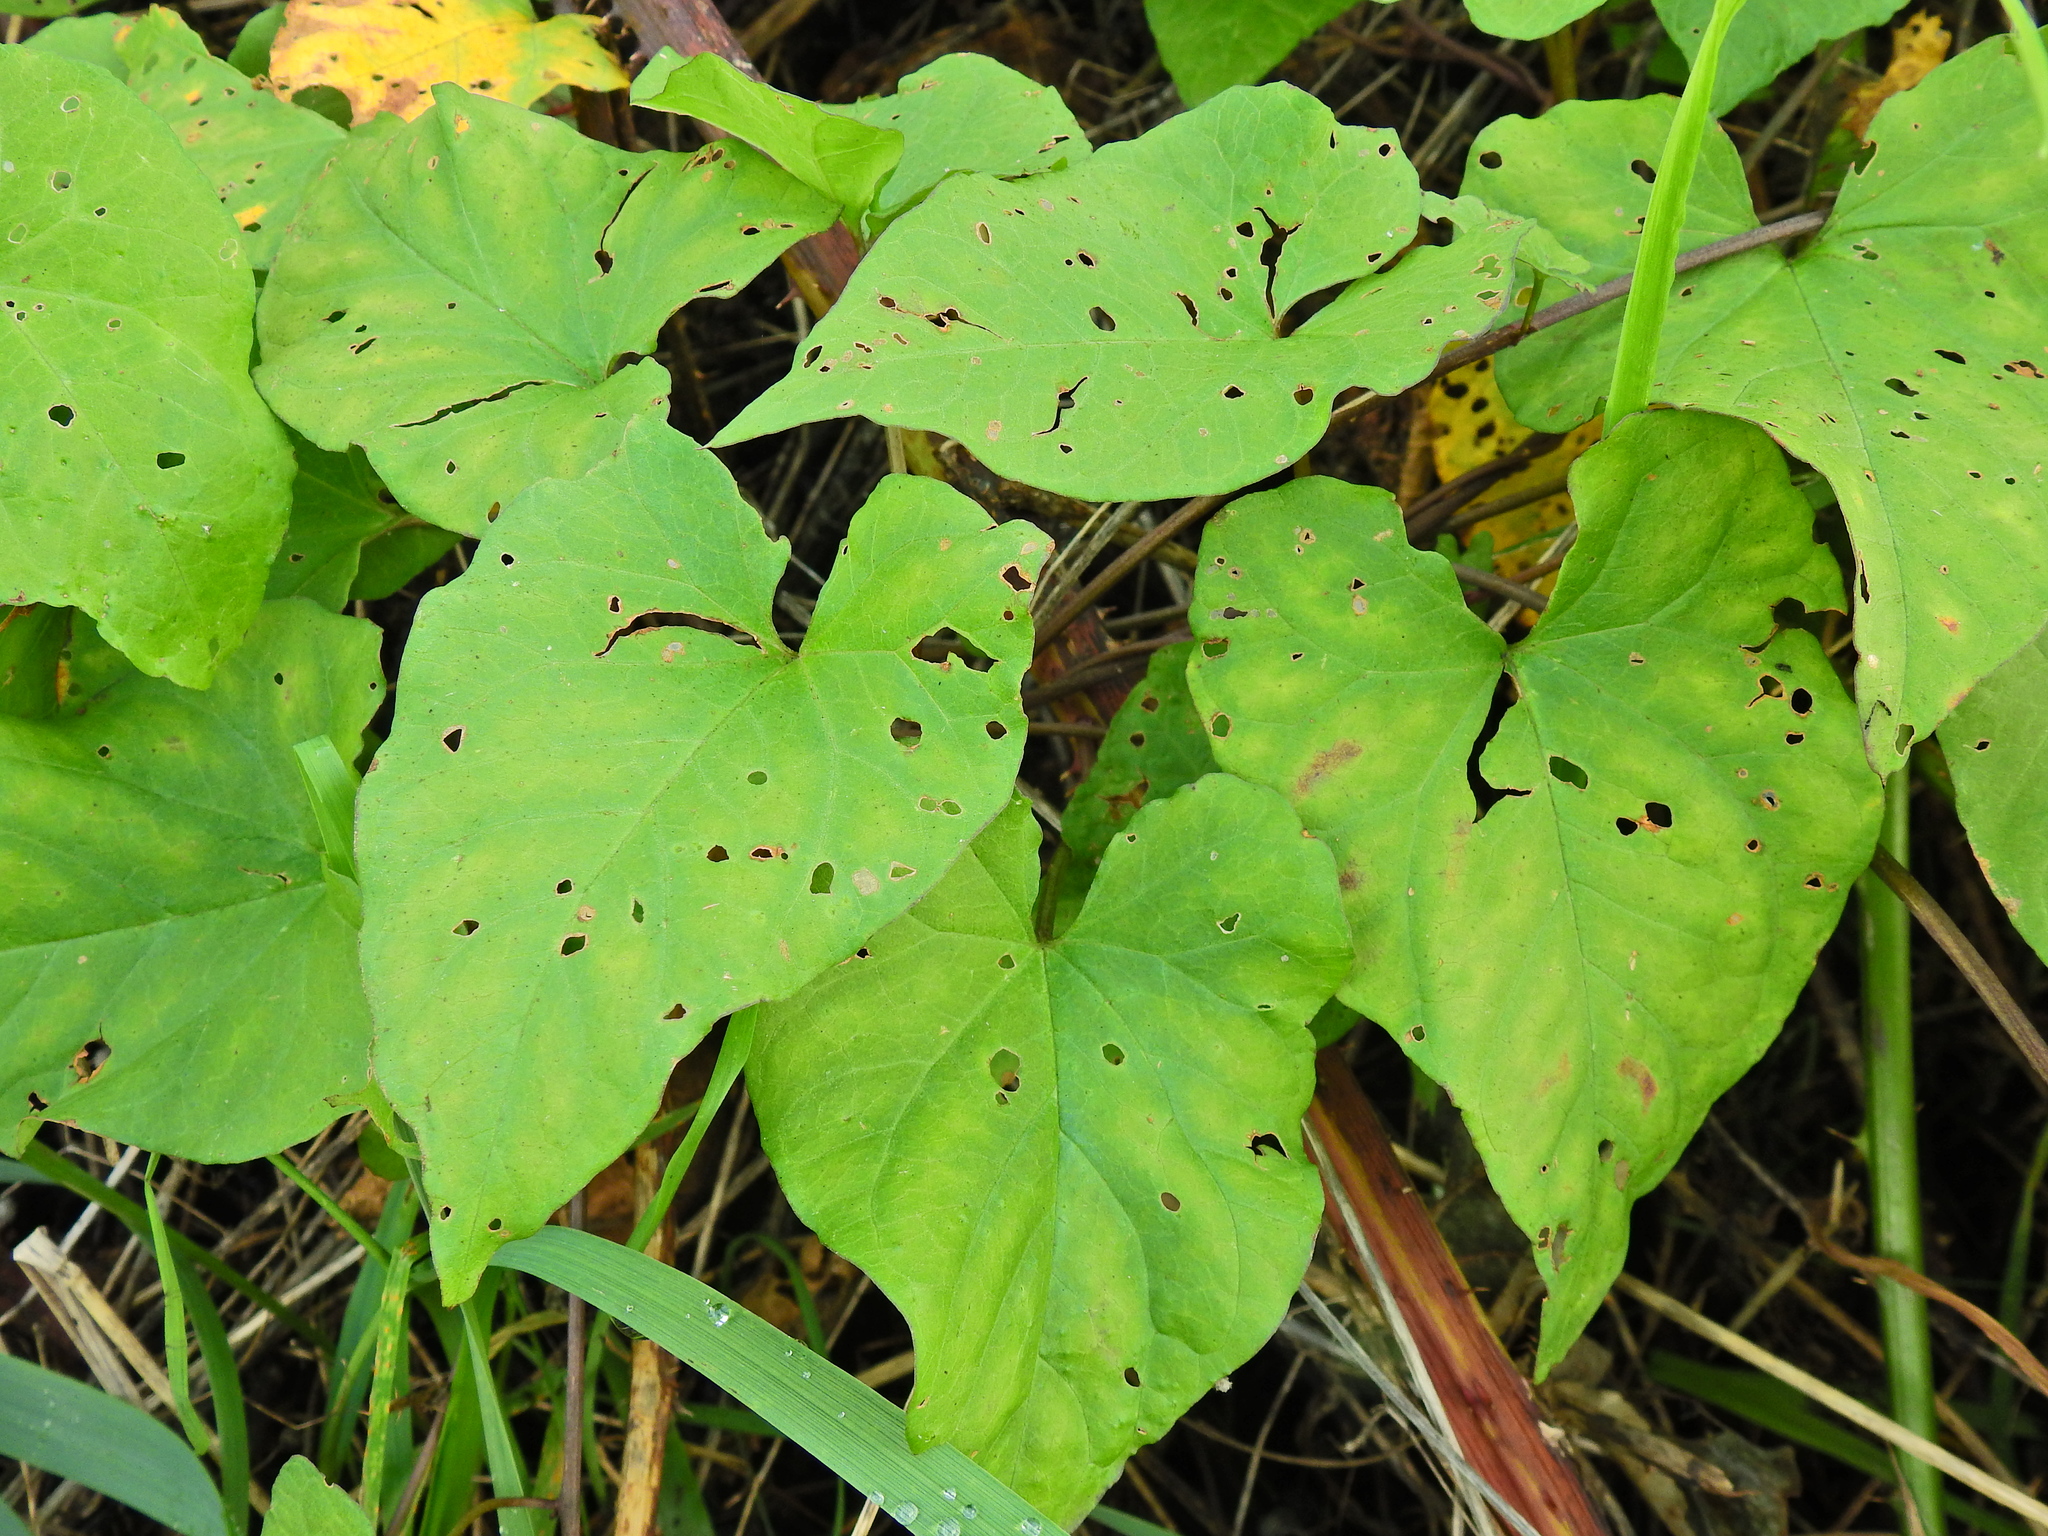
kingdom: Plantae
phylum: Tracheophyta
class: Magnoliopsida
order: Solanales
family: Convolvulaceae
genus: Calystegia
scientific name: Calystegia silvatica
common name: Large bindweed
